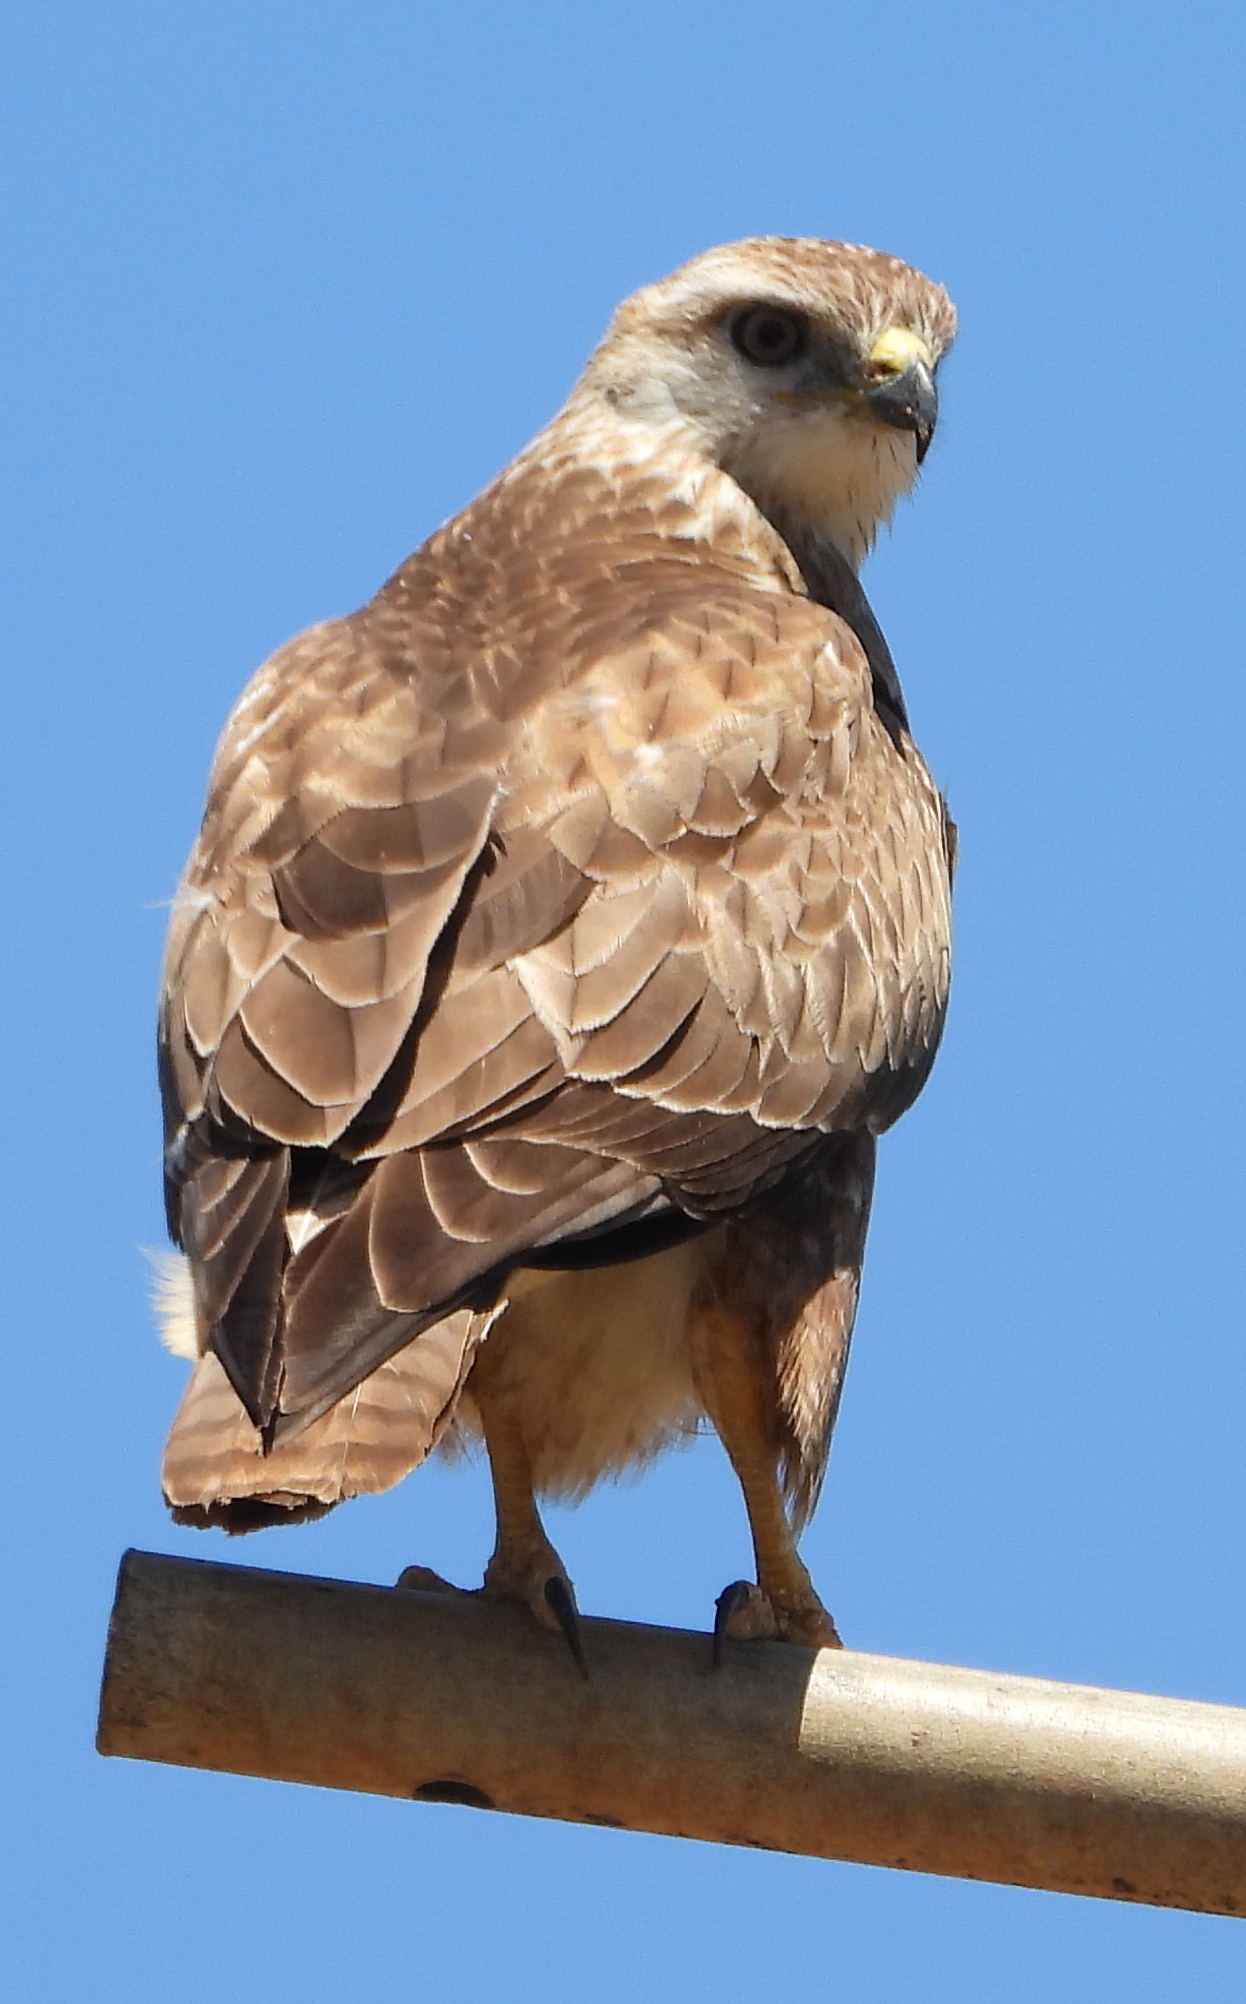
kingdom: Animalia
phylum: Chordata
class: Aves
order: Accipitriformes
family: Accipitridae
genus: Buteo
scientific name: Buteo buteo
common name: Common buzzard
